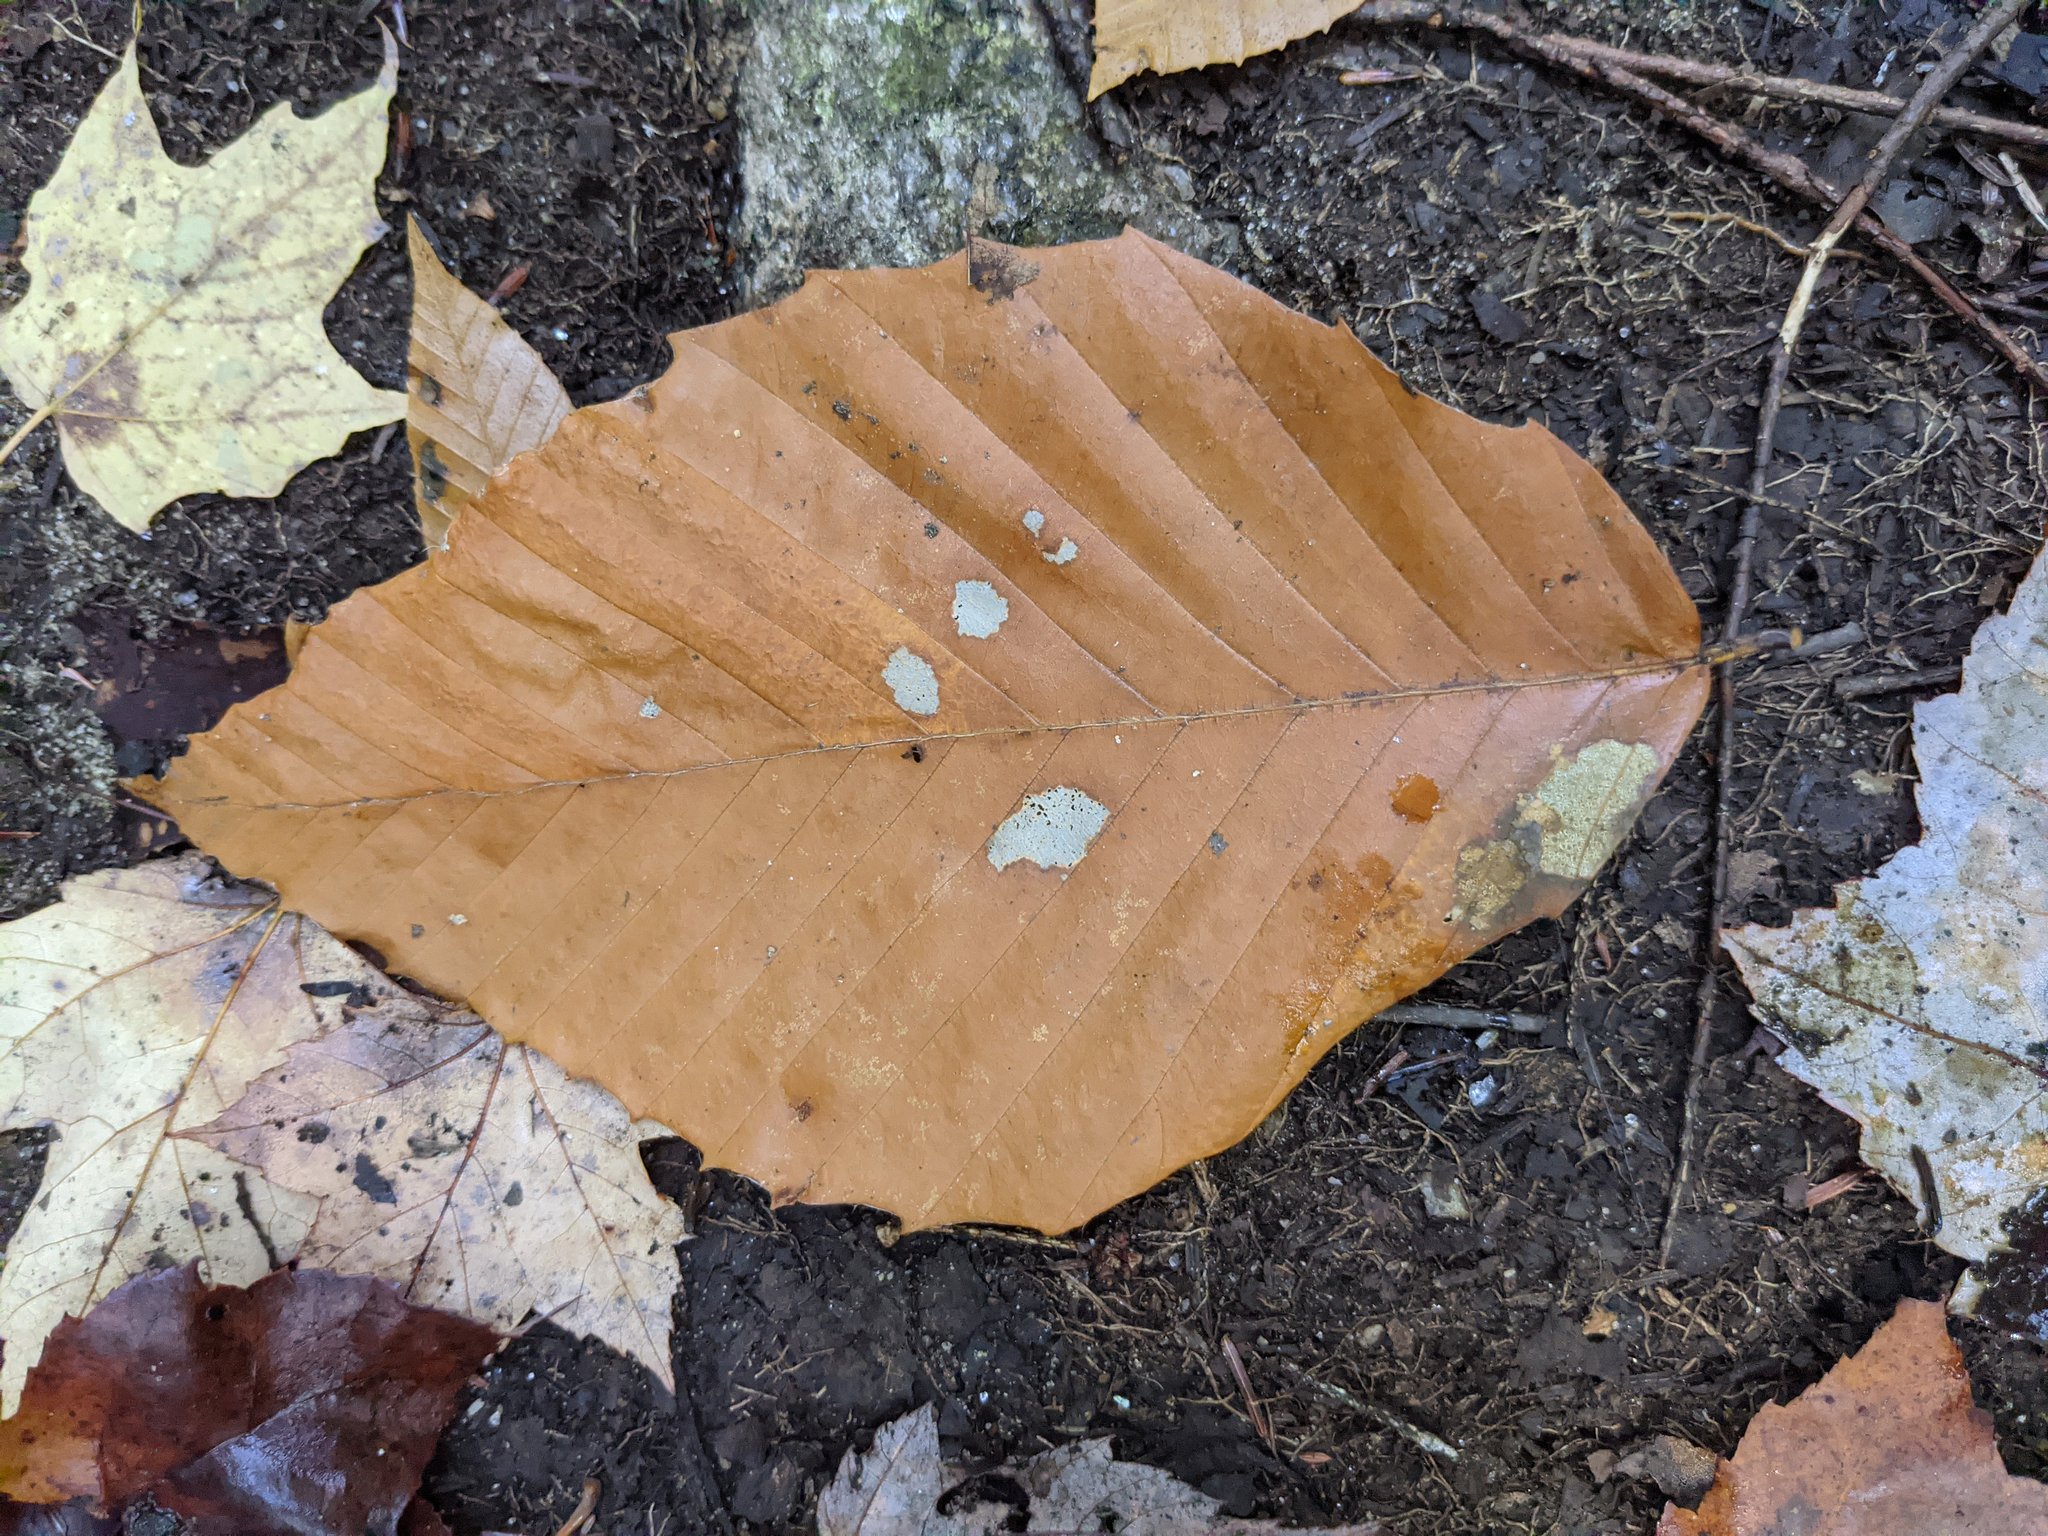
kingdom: Plantae
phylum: Tracheophyta
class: Magnoliopsida
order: Fagales
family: Fagaceae
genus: Fagus
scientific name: Fagus grandifolia
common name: American beech
